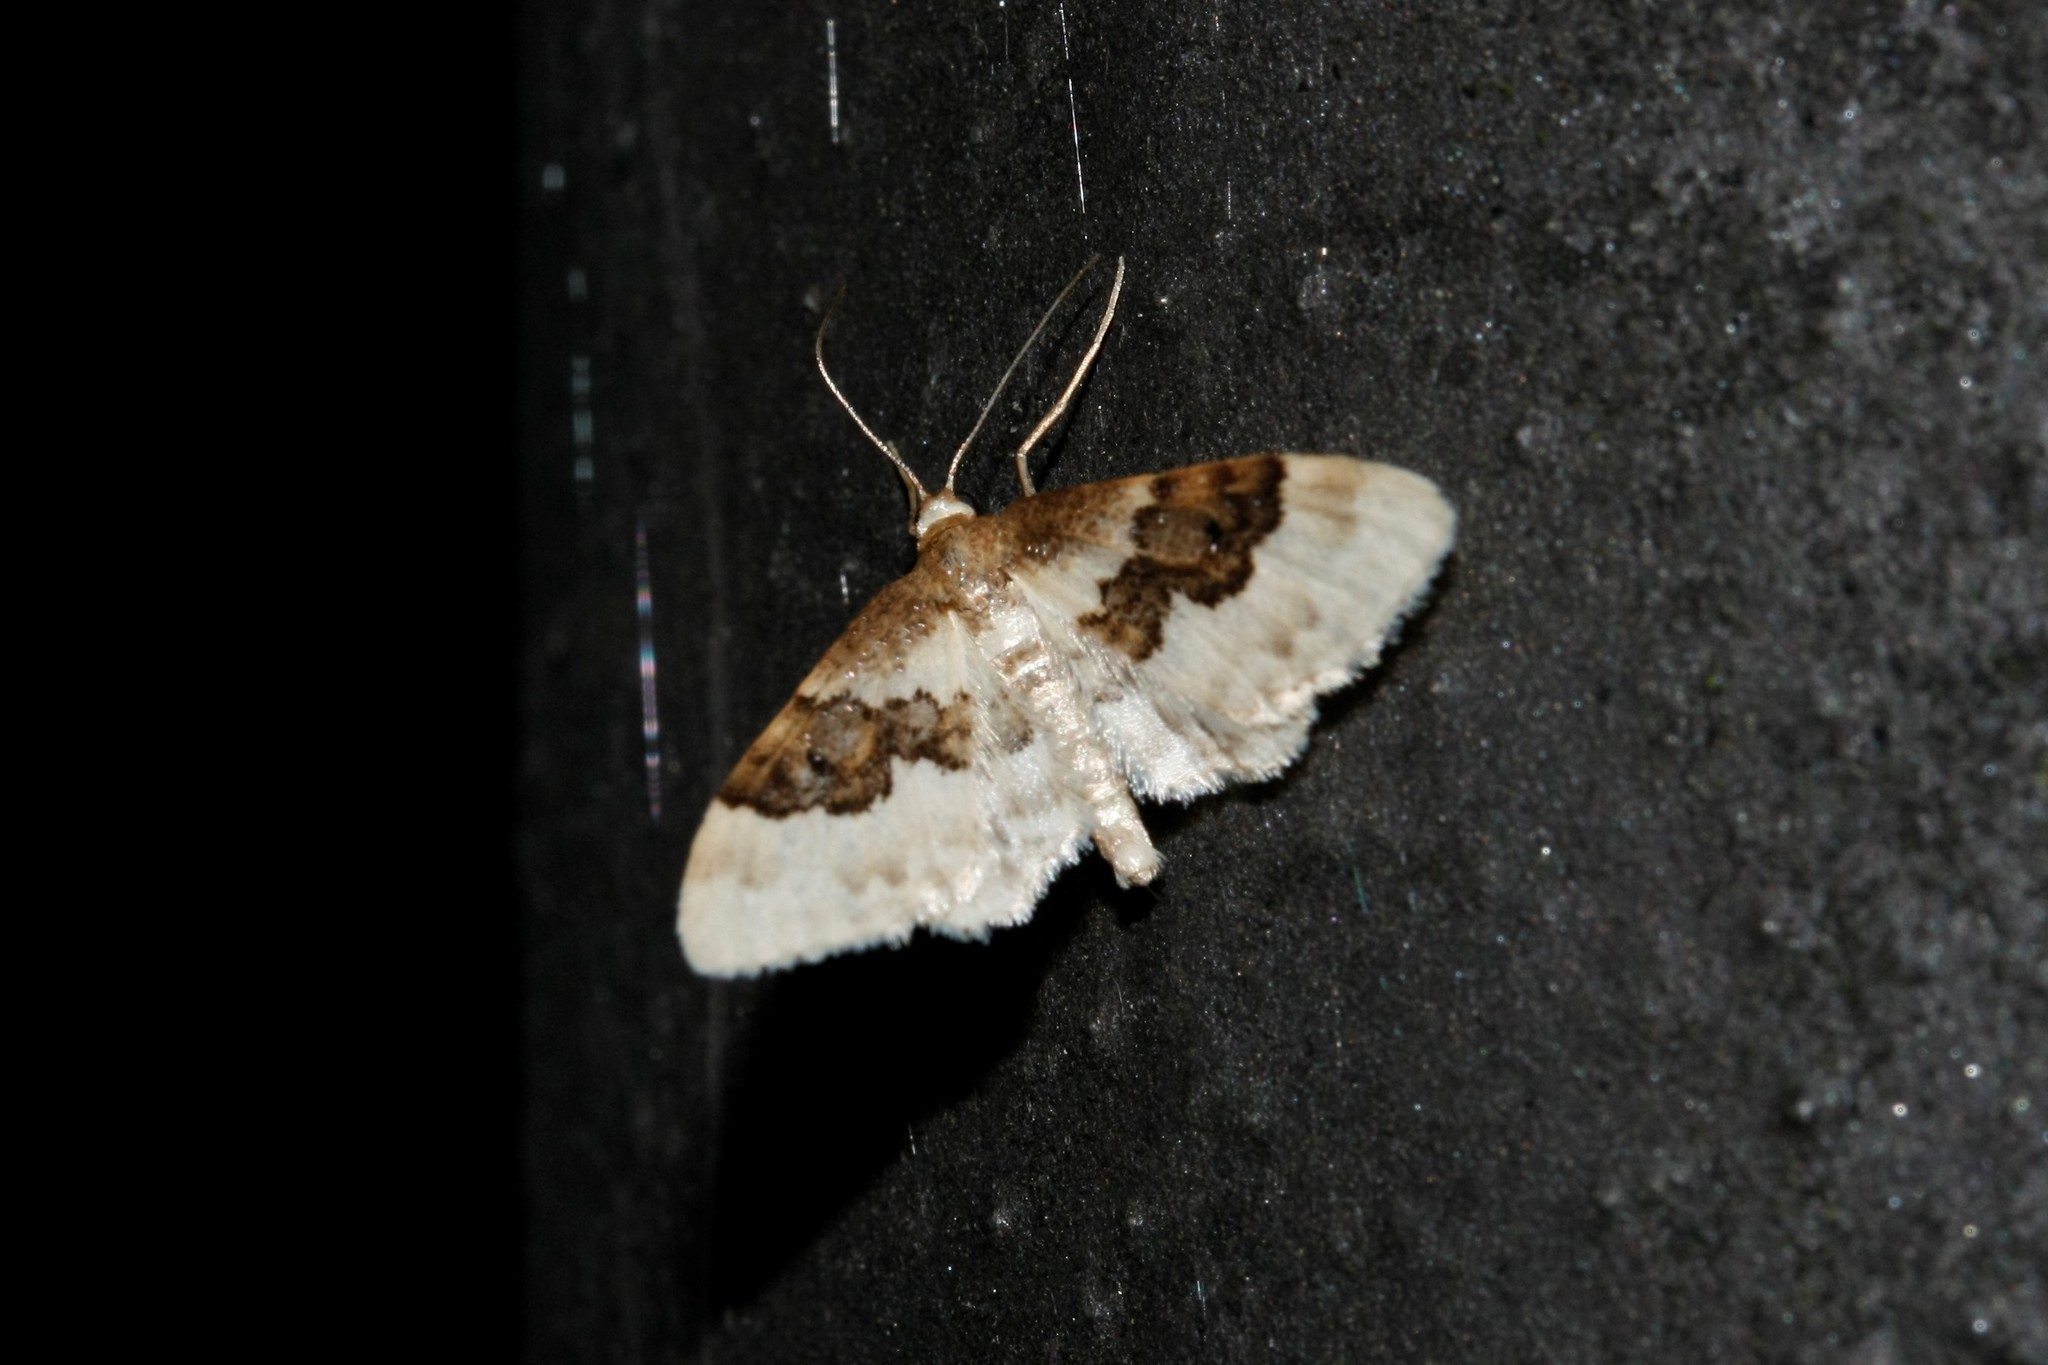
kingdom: Animalia
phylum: Arthropoda
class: Insecta
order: Lepidoptera
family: Geometridae
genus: Idaea
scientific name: Idaea rusticata
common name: Least carpet
